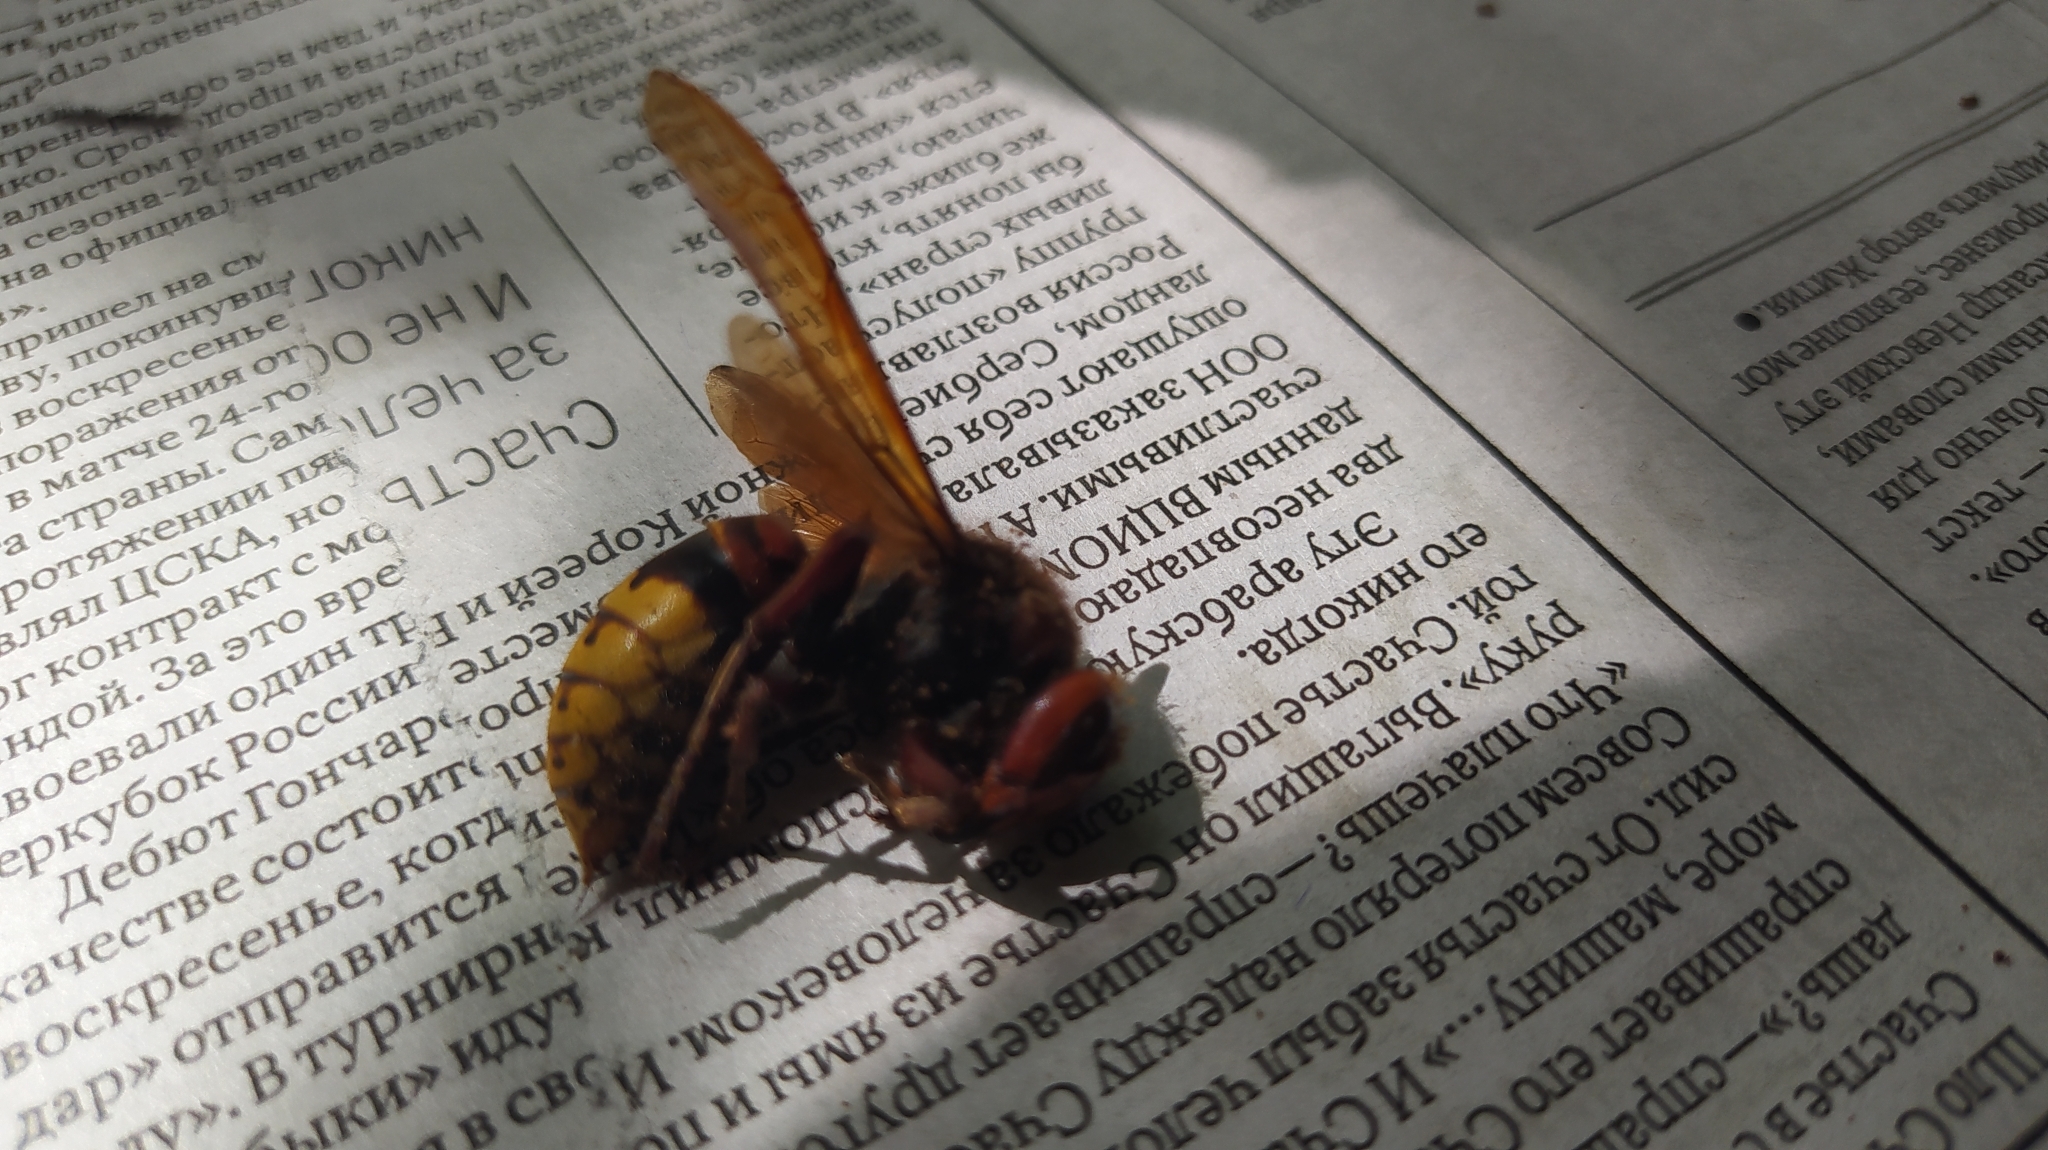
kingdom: Animalia
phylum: Arthropoda
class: Insecta
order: Hymenoptera
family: Vespidae
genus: Vespa
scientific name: Vespa crabro
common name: Hornet
